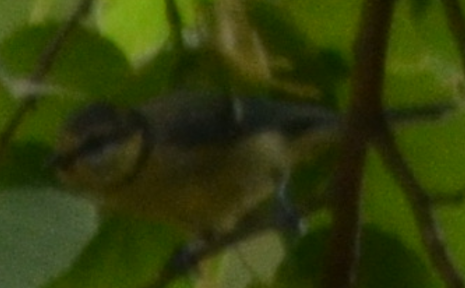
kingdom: Animalia
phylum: Chordata
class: Aves
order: Passeriformes
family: Paridae
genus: Cyanistes
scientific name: Cyanistes caeruleus
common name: Eurasian blue tit
